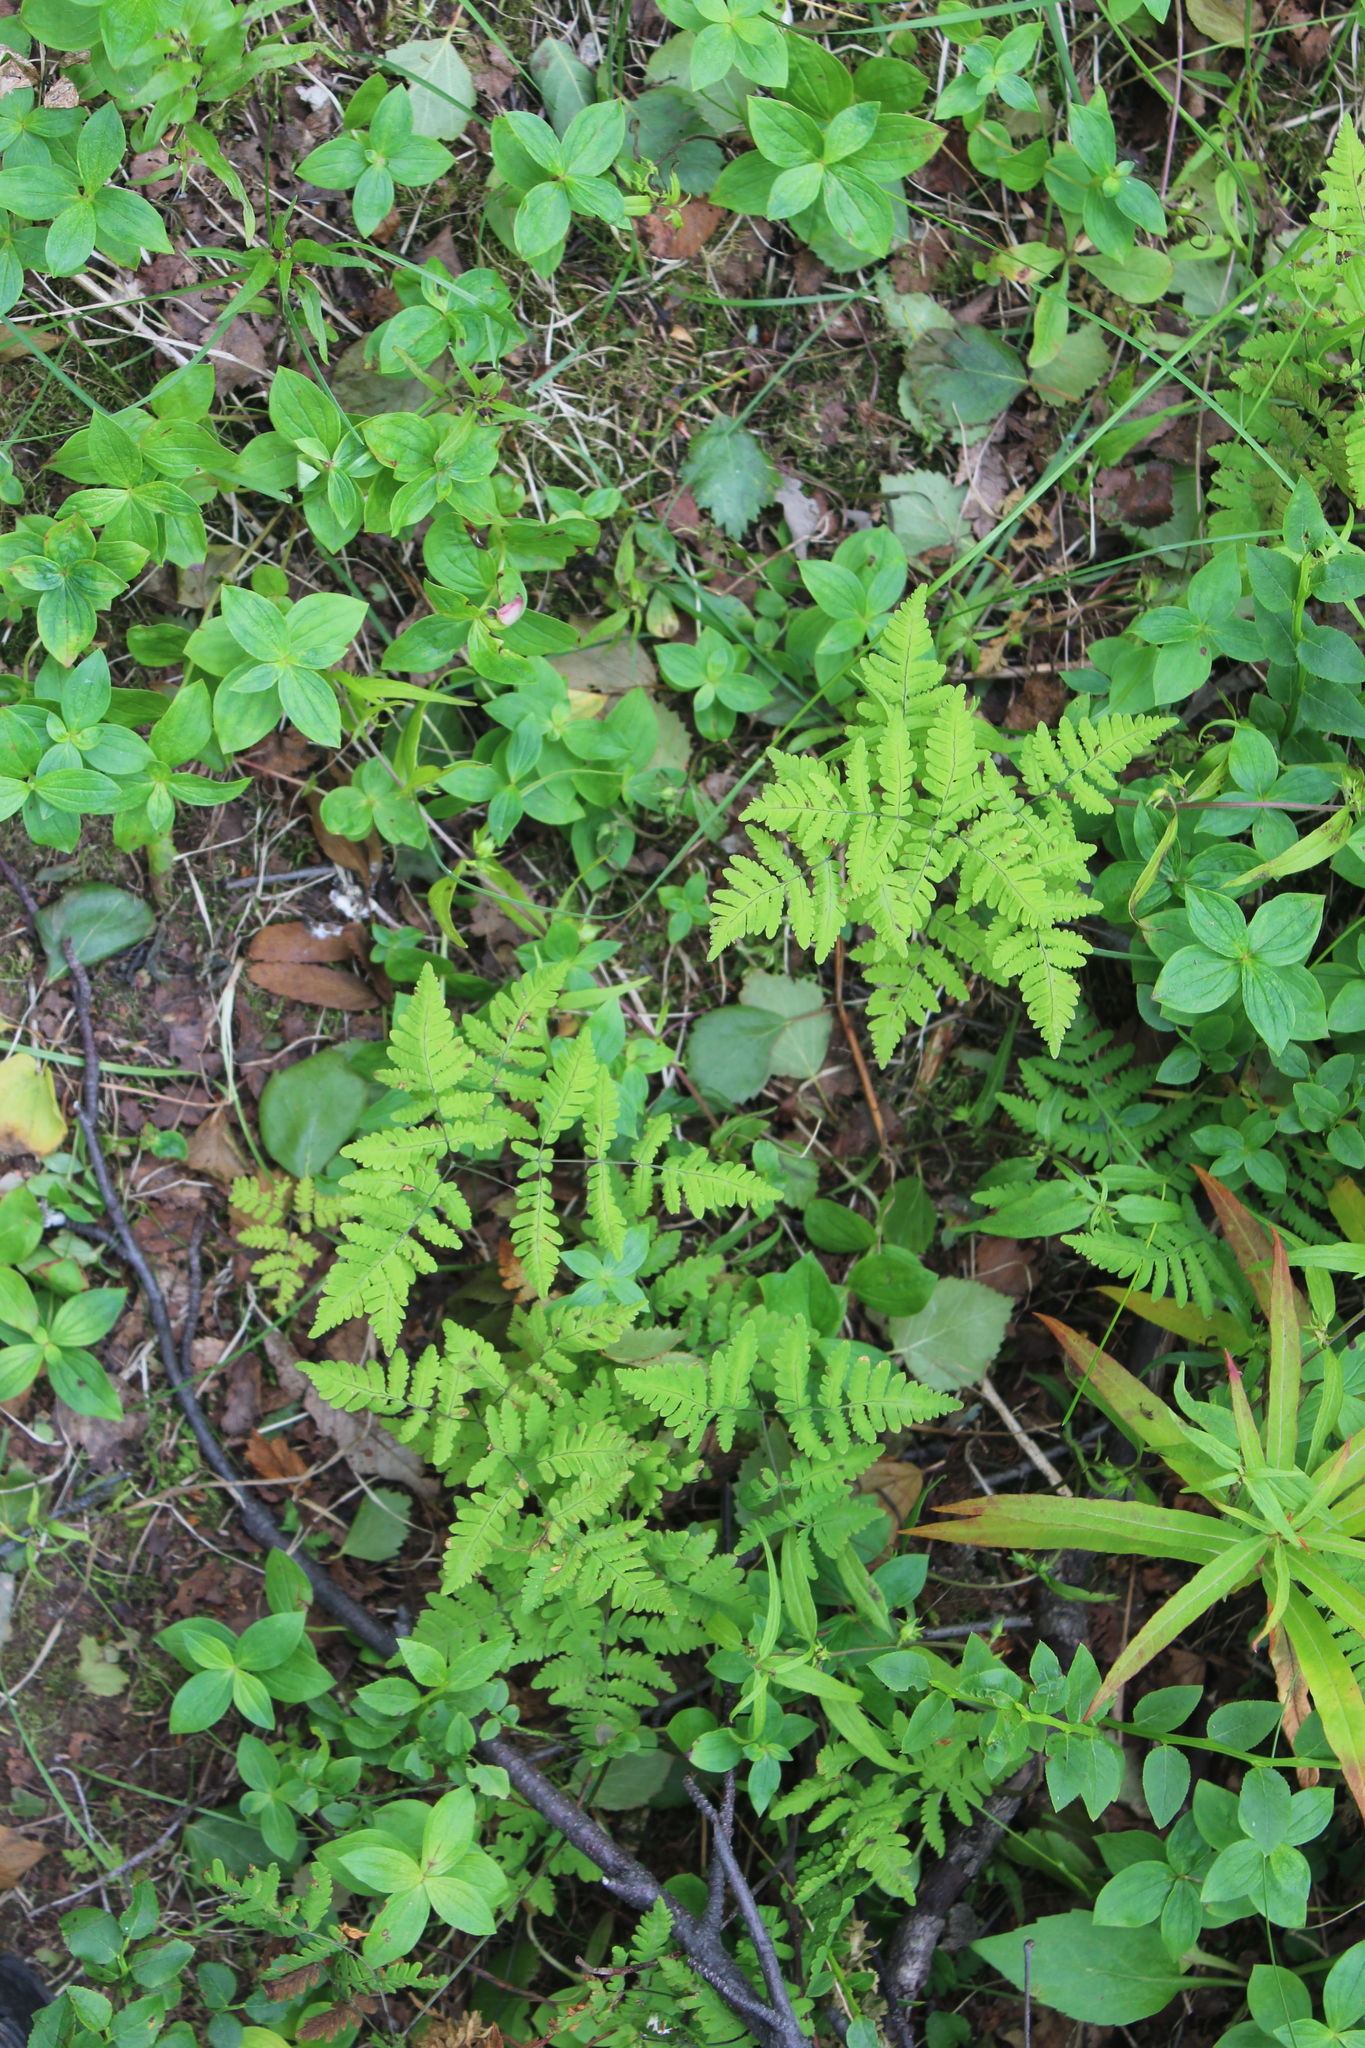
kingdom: Plantae
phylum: Tracheophyta
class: Polypodiopsida
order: Polypodiales
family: Cystopteridaceae
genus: Gymnocarpium
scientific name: Gymnocarpium dryopteris
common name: Oak fern
